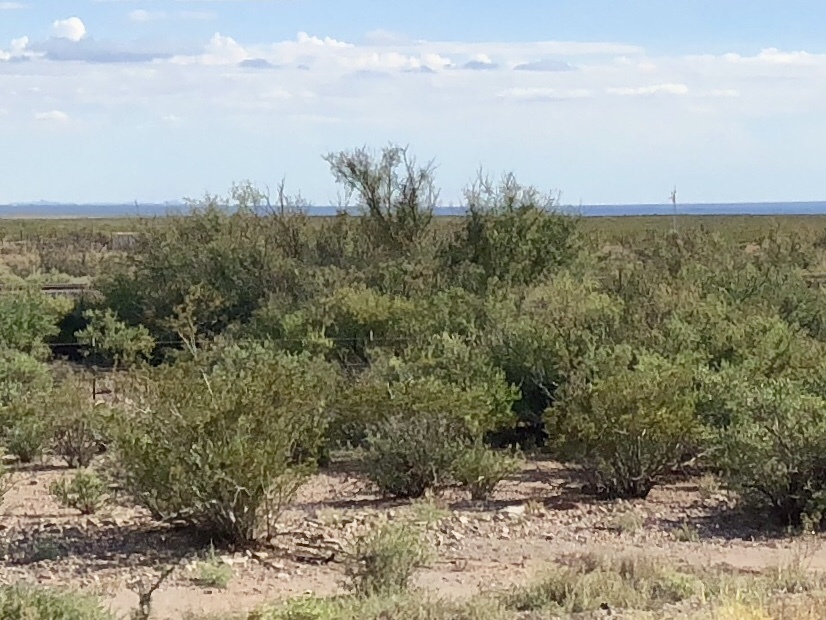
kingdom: Plantae
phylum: Tracheophyta
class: Magnoliopsida
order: Zygophyllales
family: Zygophyllaceae
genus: Larrea
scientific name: Larrea tridentata
